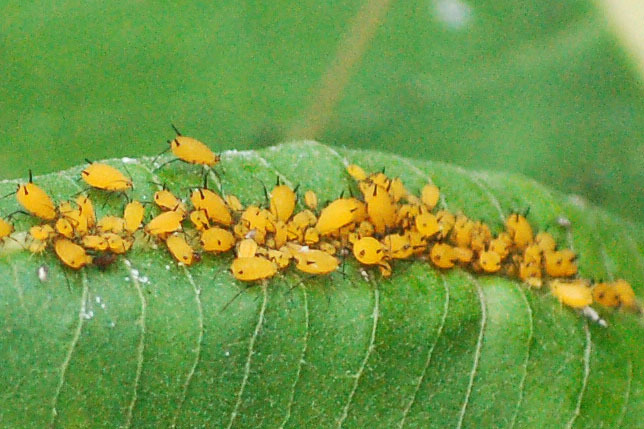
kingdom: Animalia
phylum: Arthropoda
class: Insecta
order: Hemiptera
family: Aphididae
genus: Aphis
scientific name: Aphis nerii
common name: Oleander aphid
